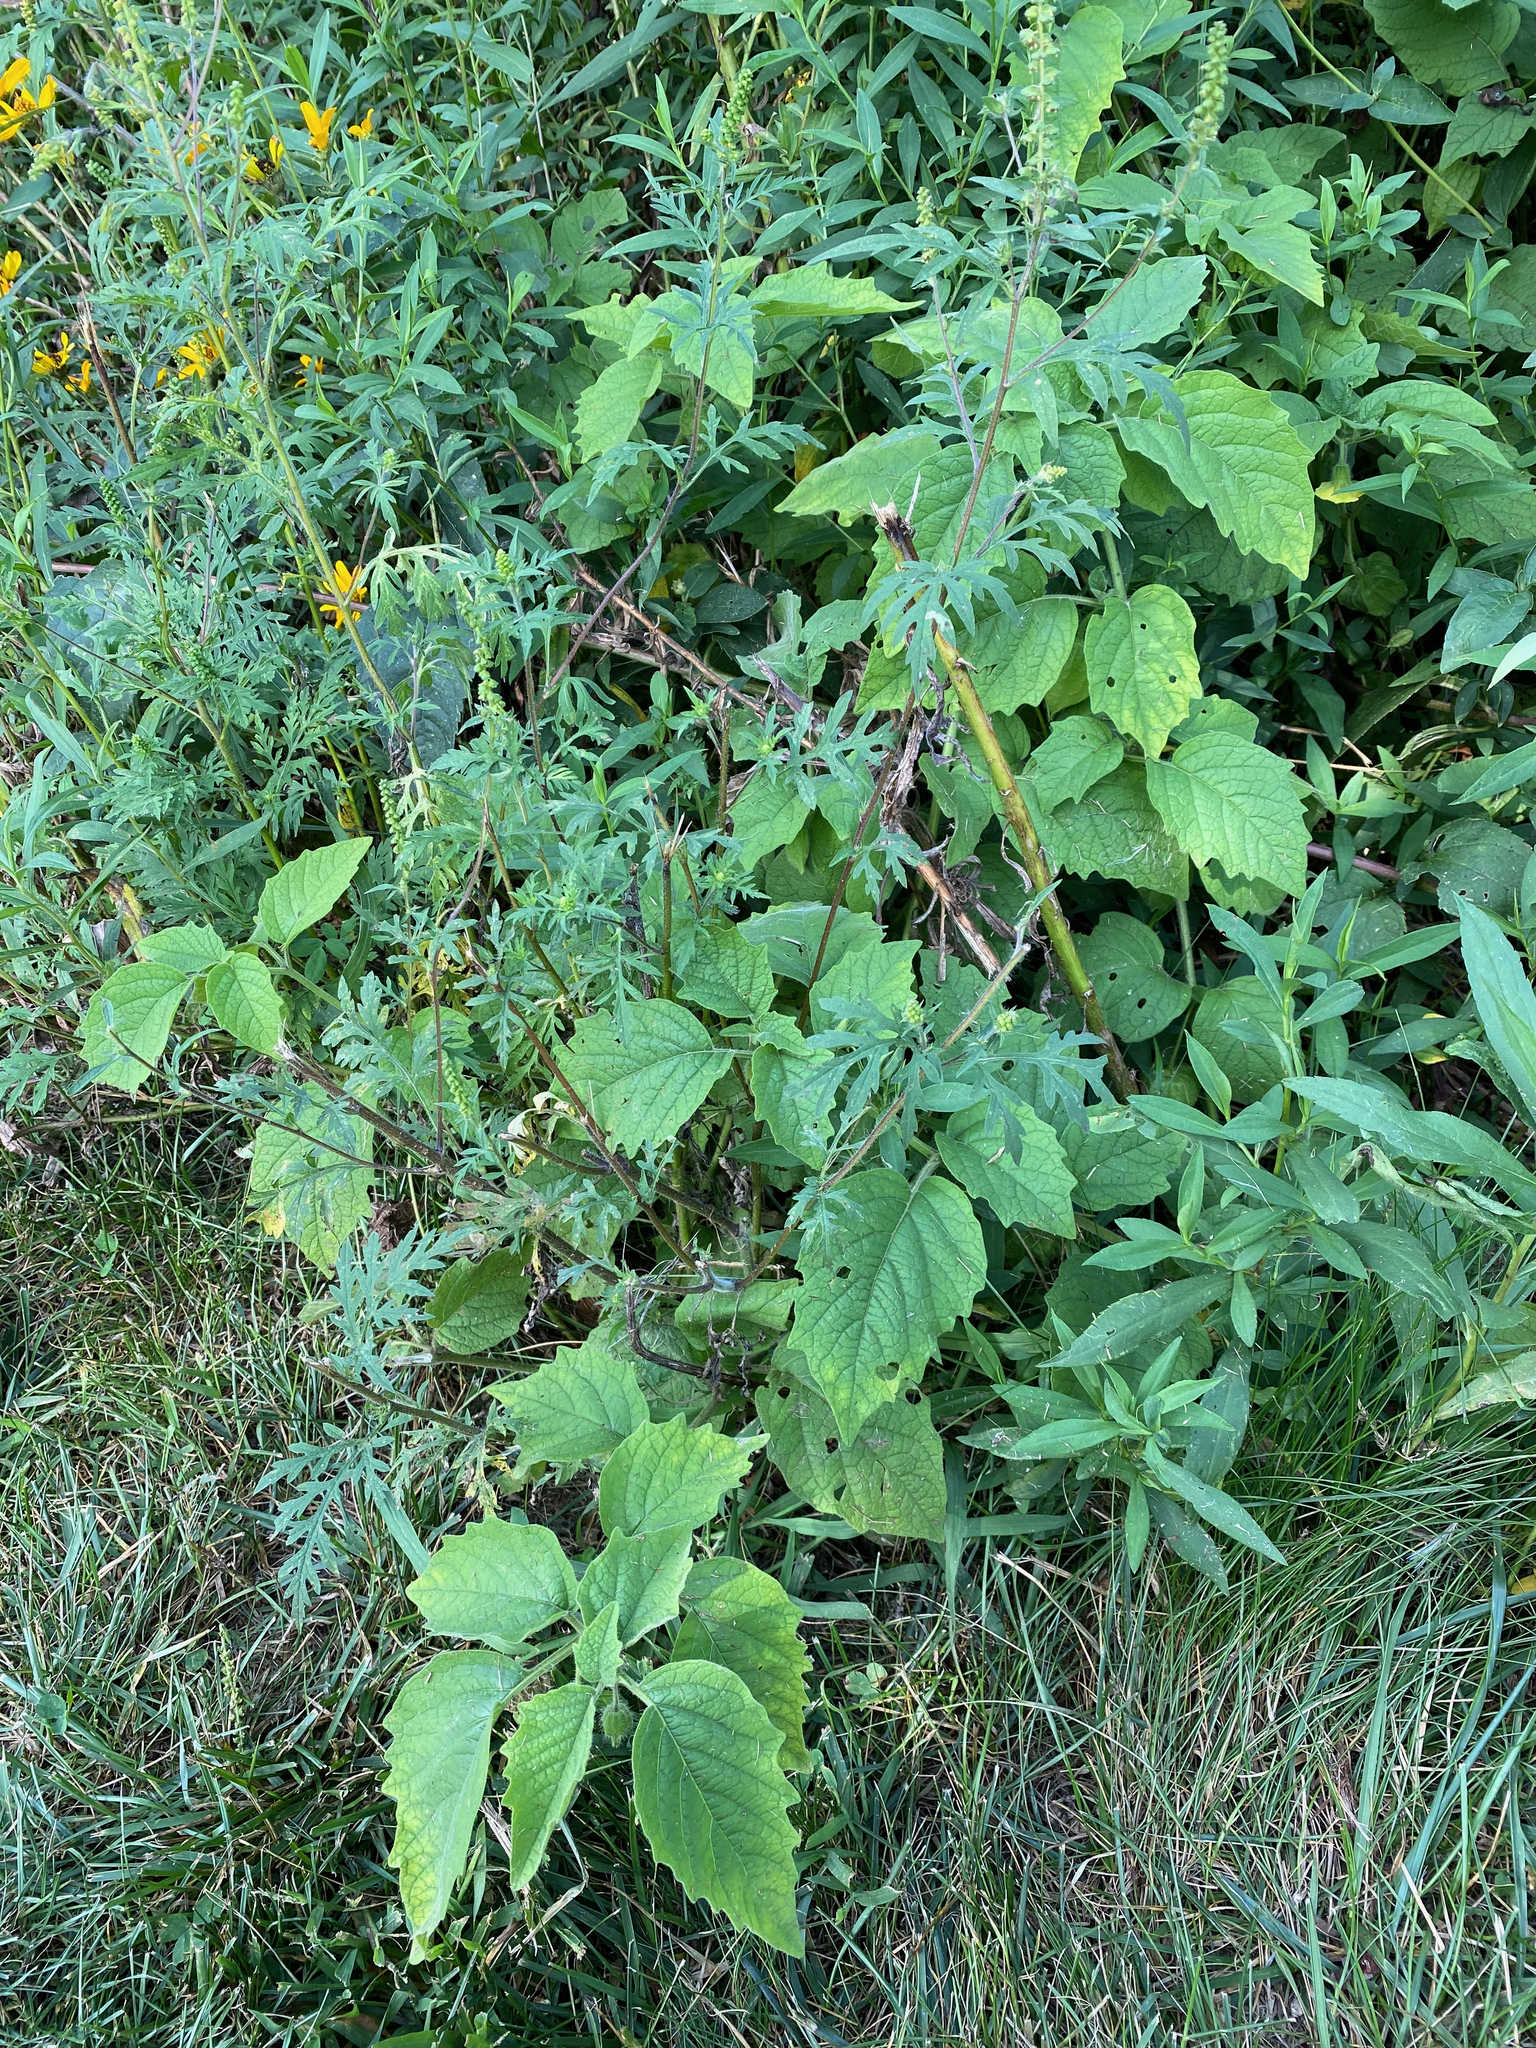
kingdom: Plantae
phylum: Tracheophyta
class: Magnoliopsida
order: Solanales
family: Solanaceae
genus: Physalis
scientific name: Physalis heterophylla
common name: Clammy ground-cherry
